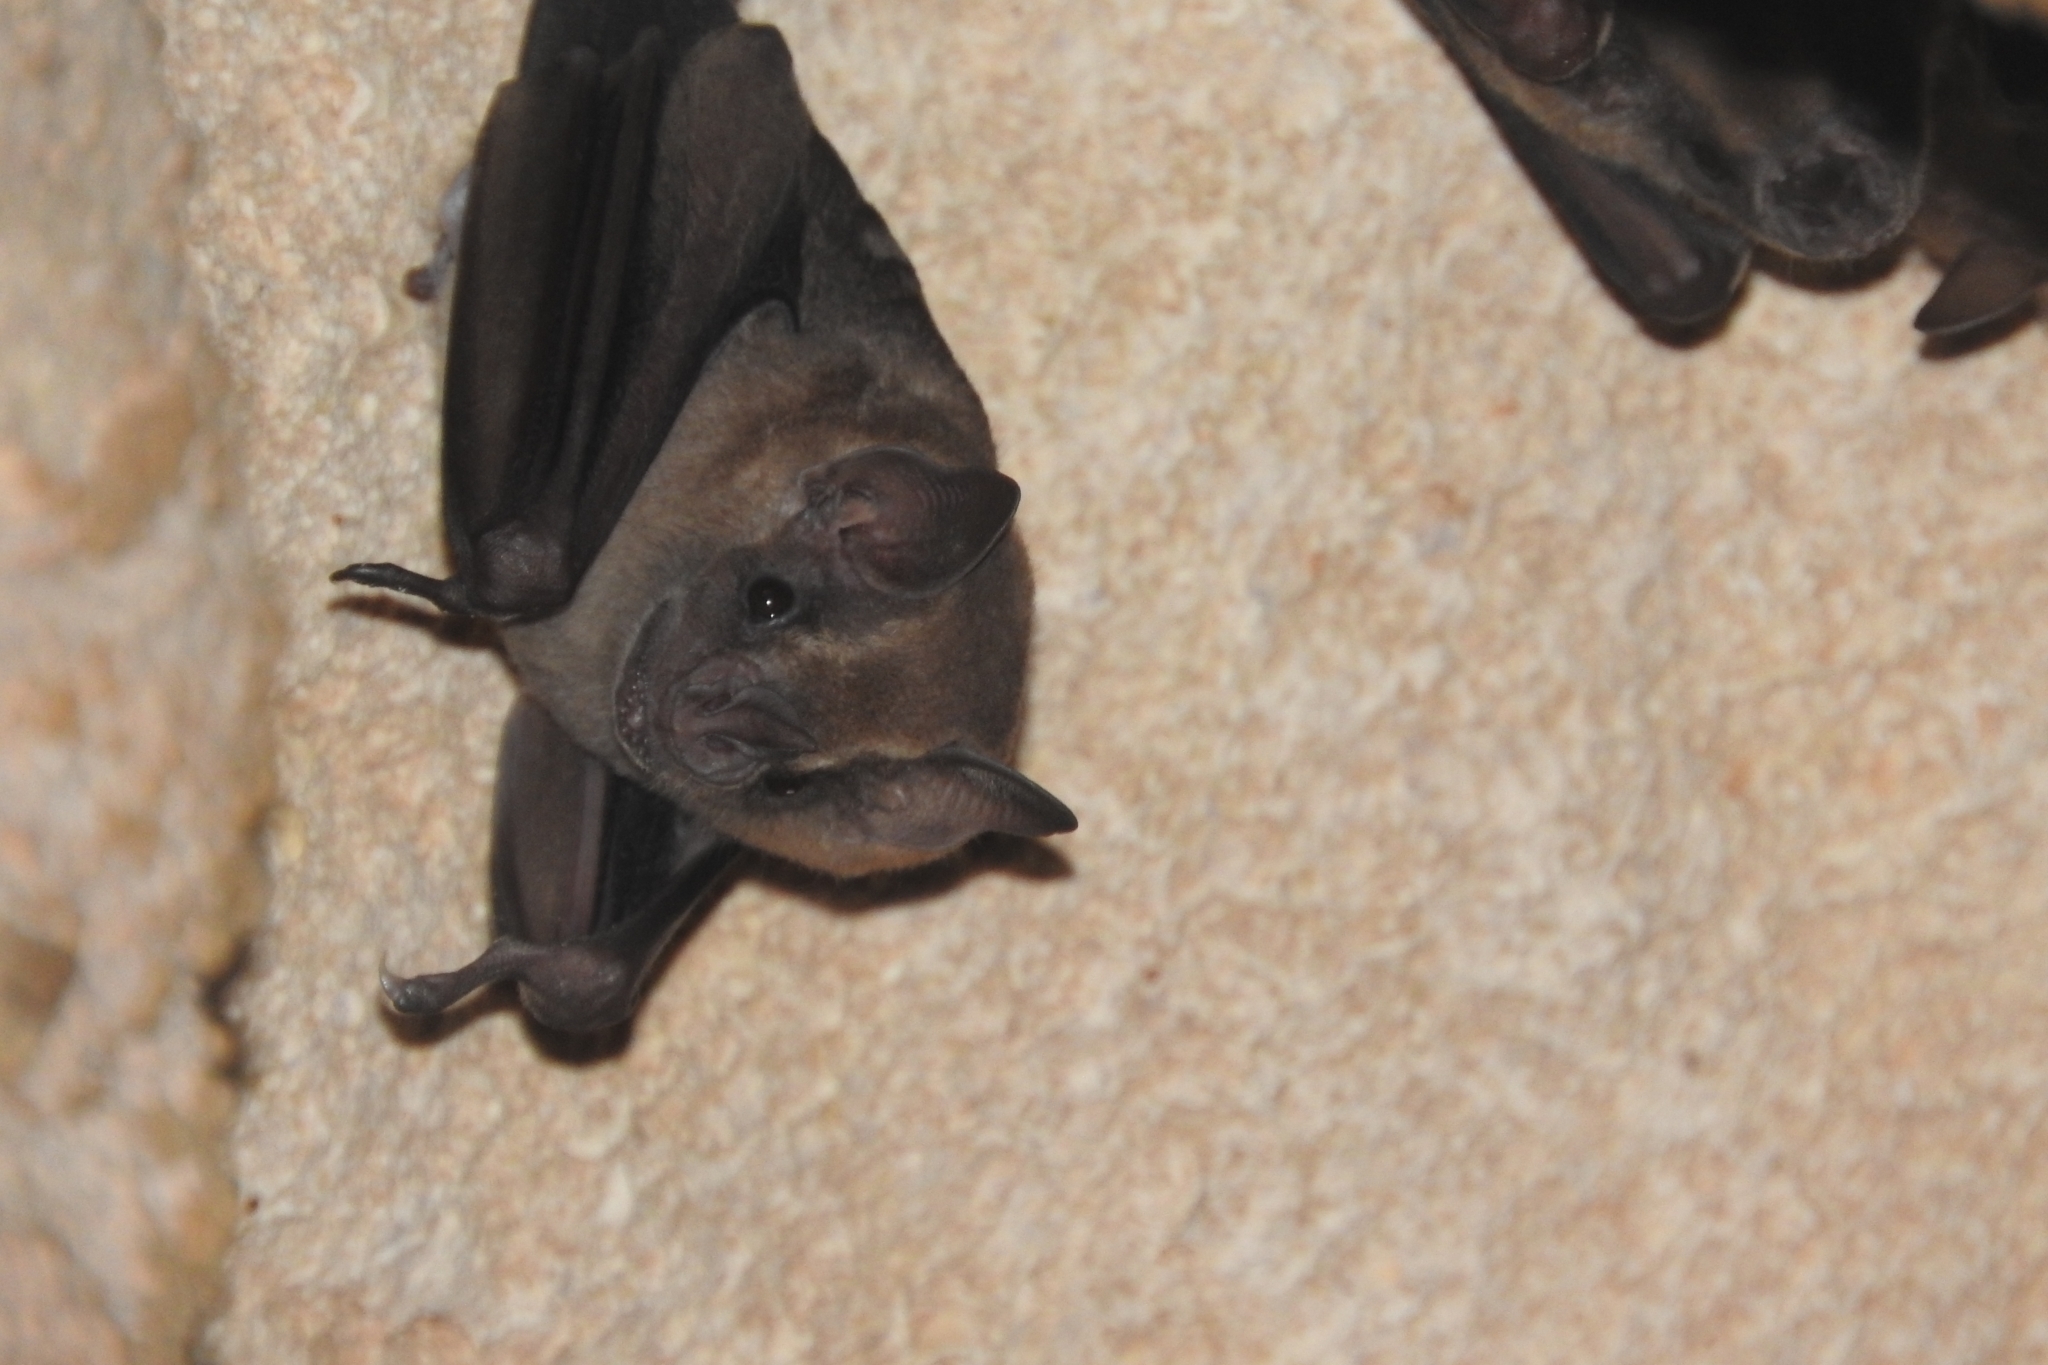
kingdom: Animalia
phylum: Chordata
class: Mammalia
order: Chiroptera
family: Phyllostomidae
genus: Artibeus
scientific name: Artibeus jamaicensis
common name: Jamaican fruit-eating bat
